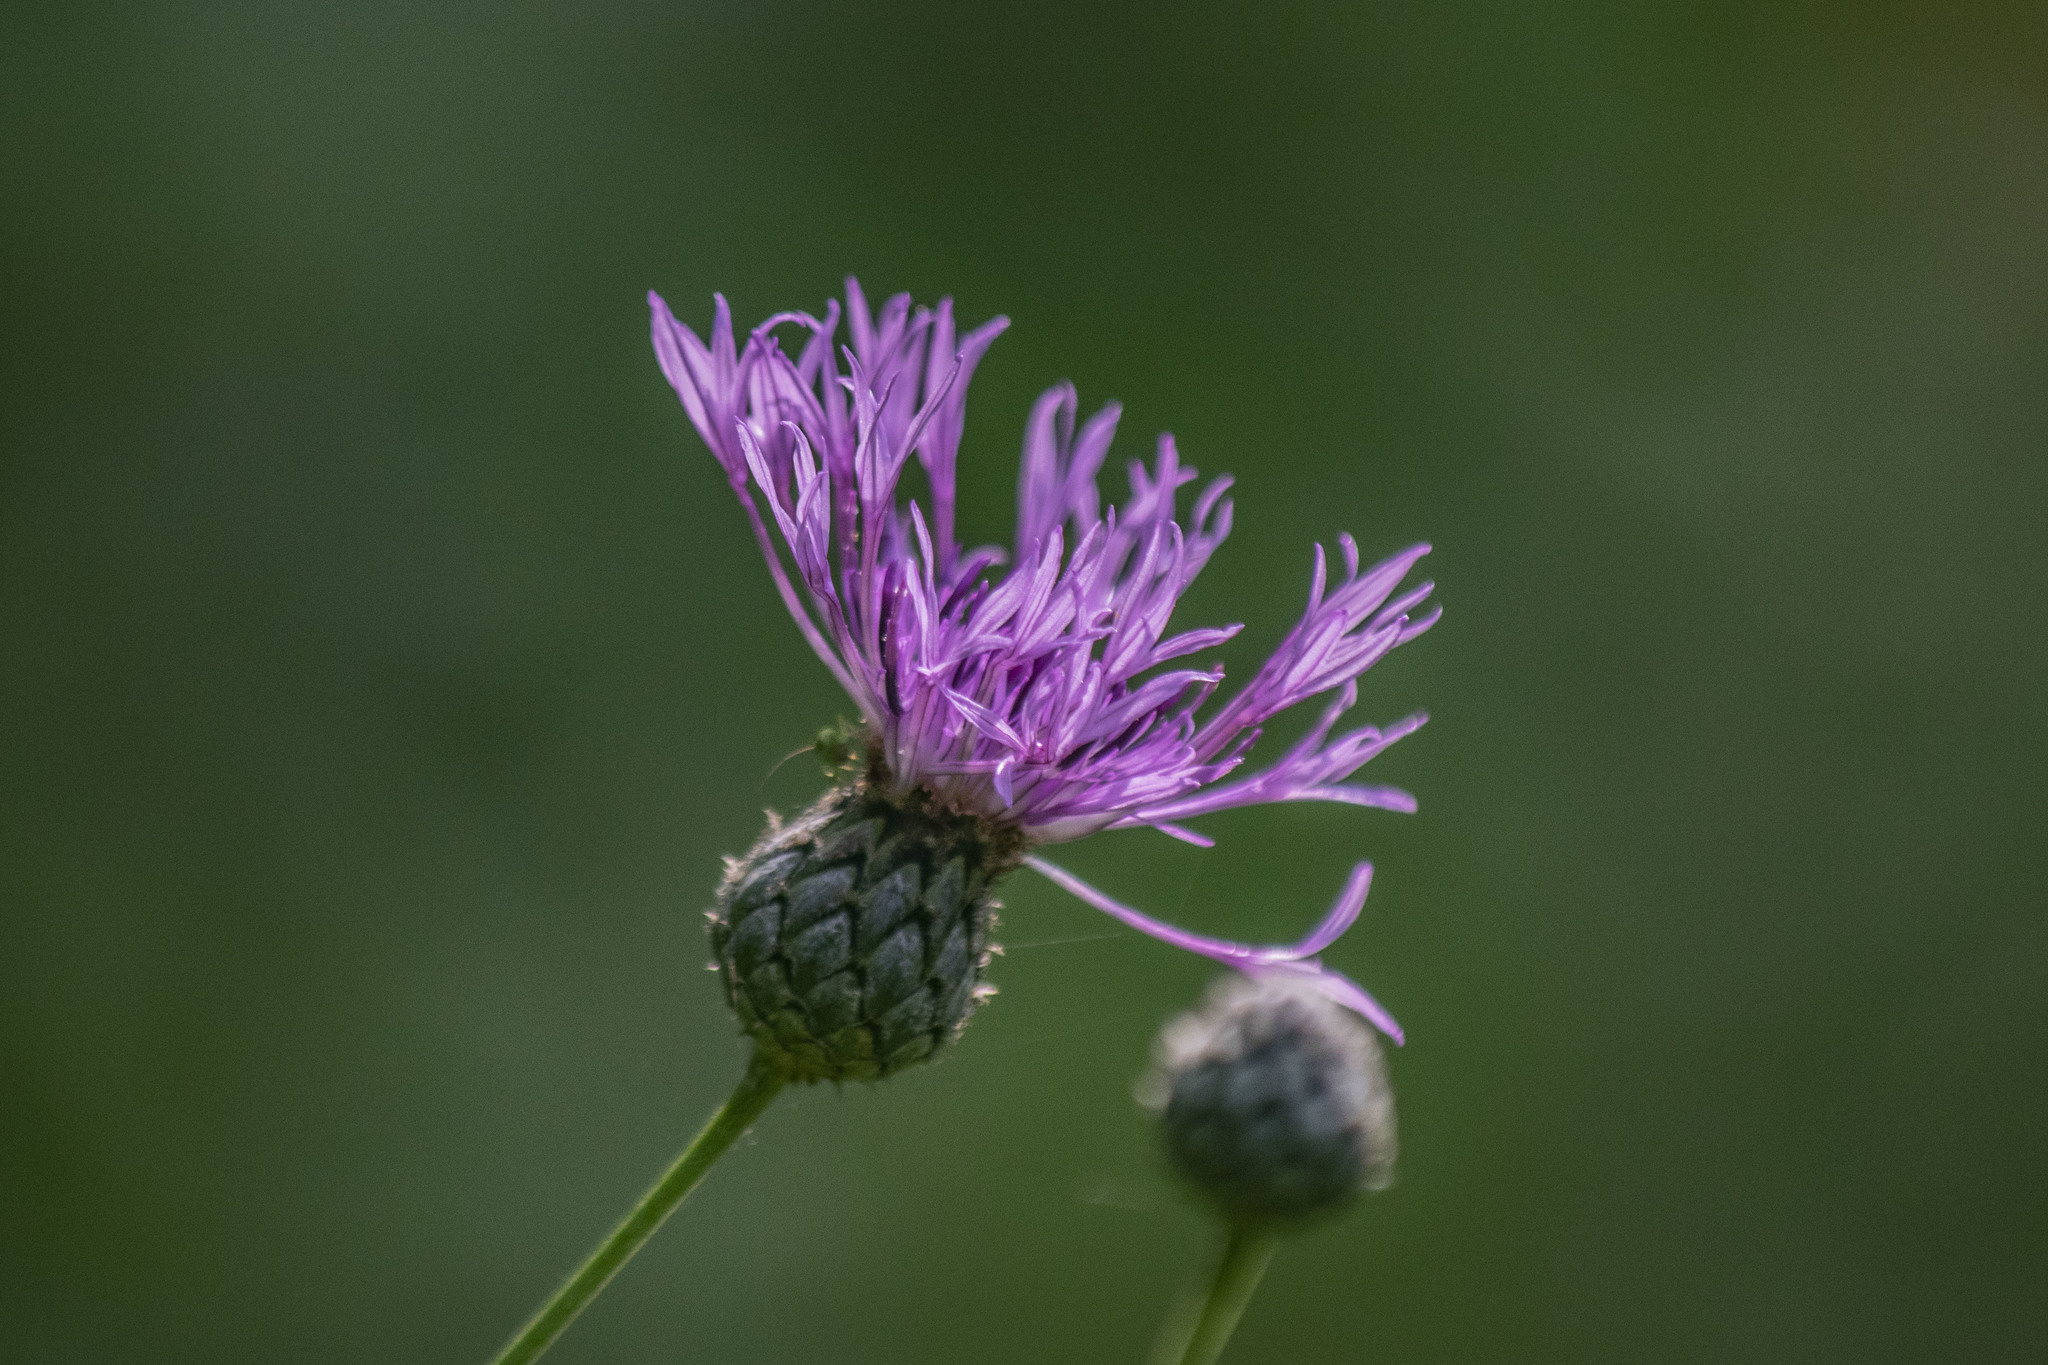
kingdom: Plantae
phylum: Tracheophyta
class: Magnoliopsida
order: Asterales
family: Asteraceae
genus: Centaurea
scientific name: Centaurea scabiosa
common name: Greater knapweed
